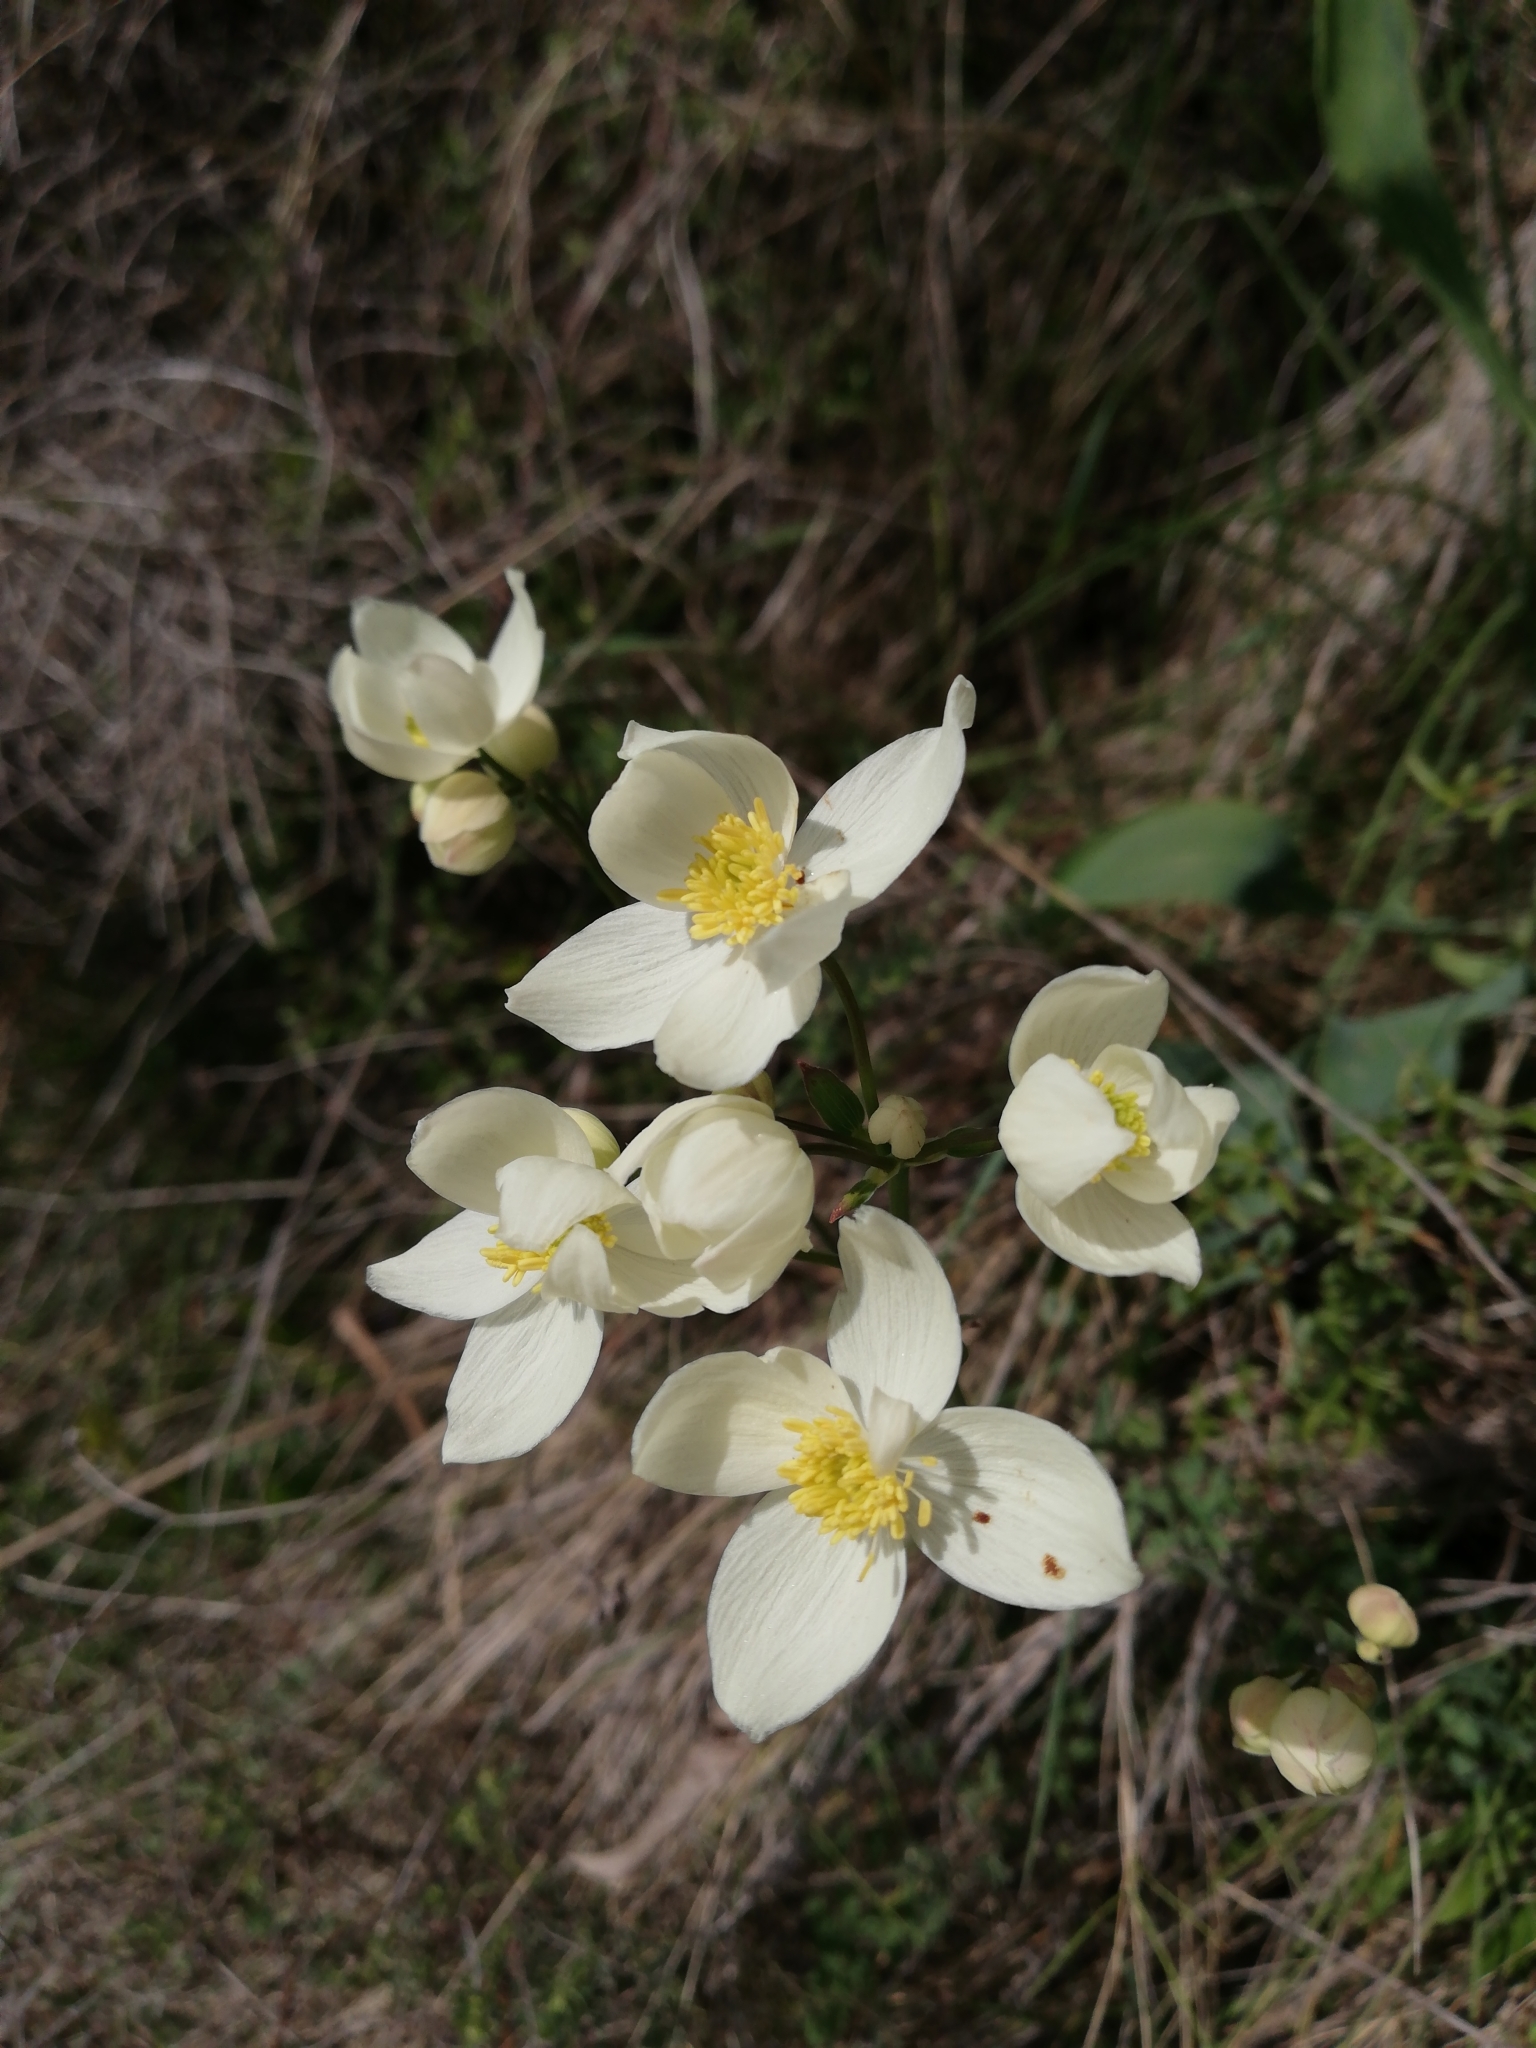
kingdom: Plantae
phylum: Tracheophyta
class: Magnoliopsida
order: Ranunculales
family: Ranunculaceae
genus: Thalictrum
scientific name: Thalictrum tuberosum
